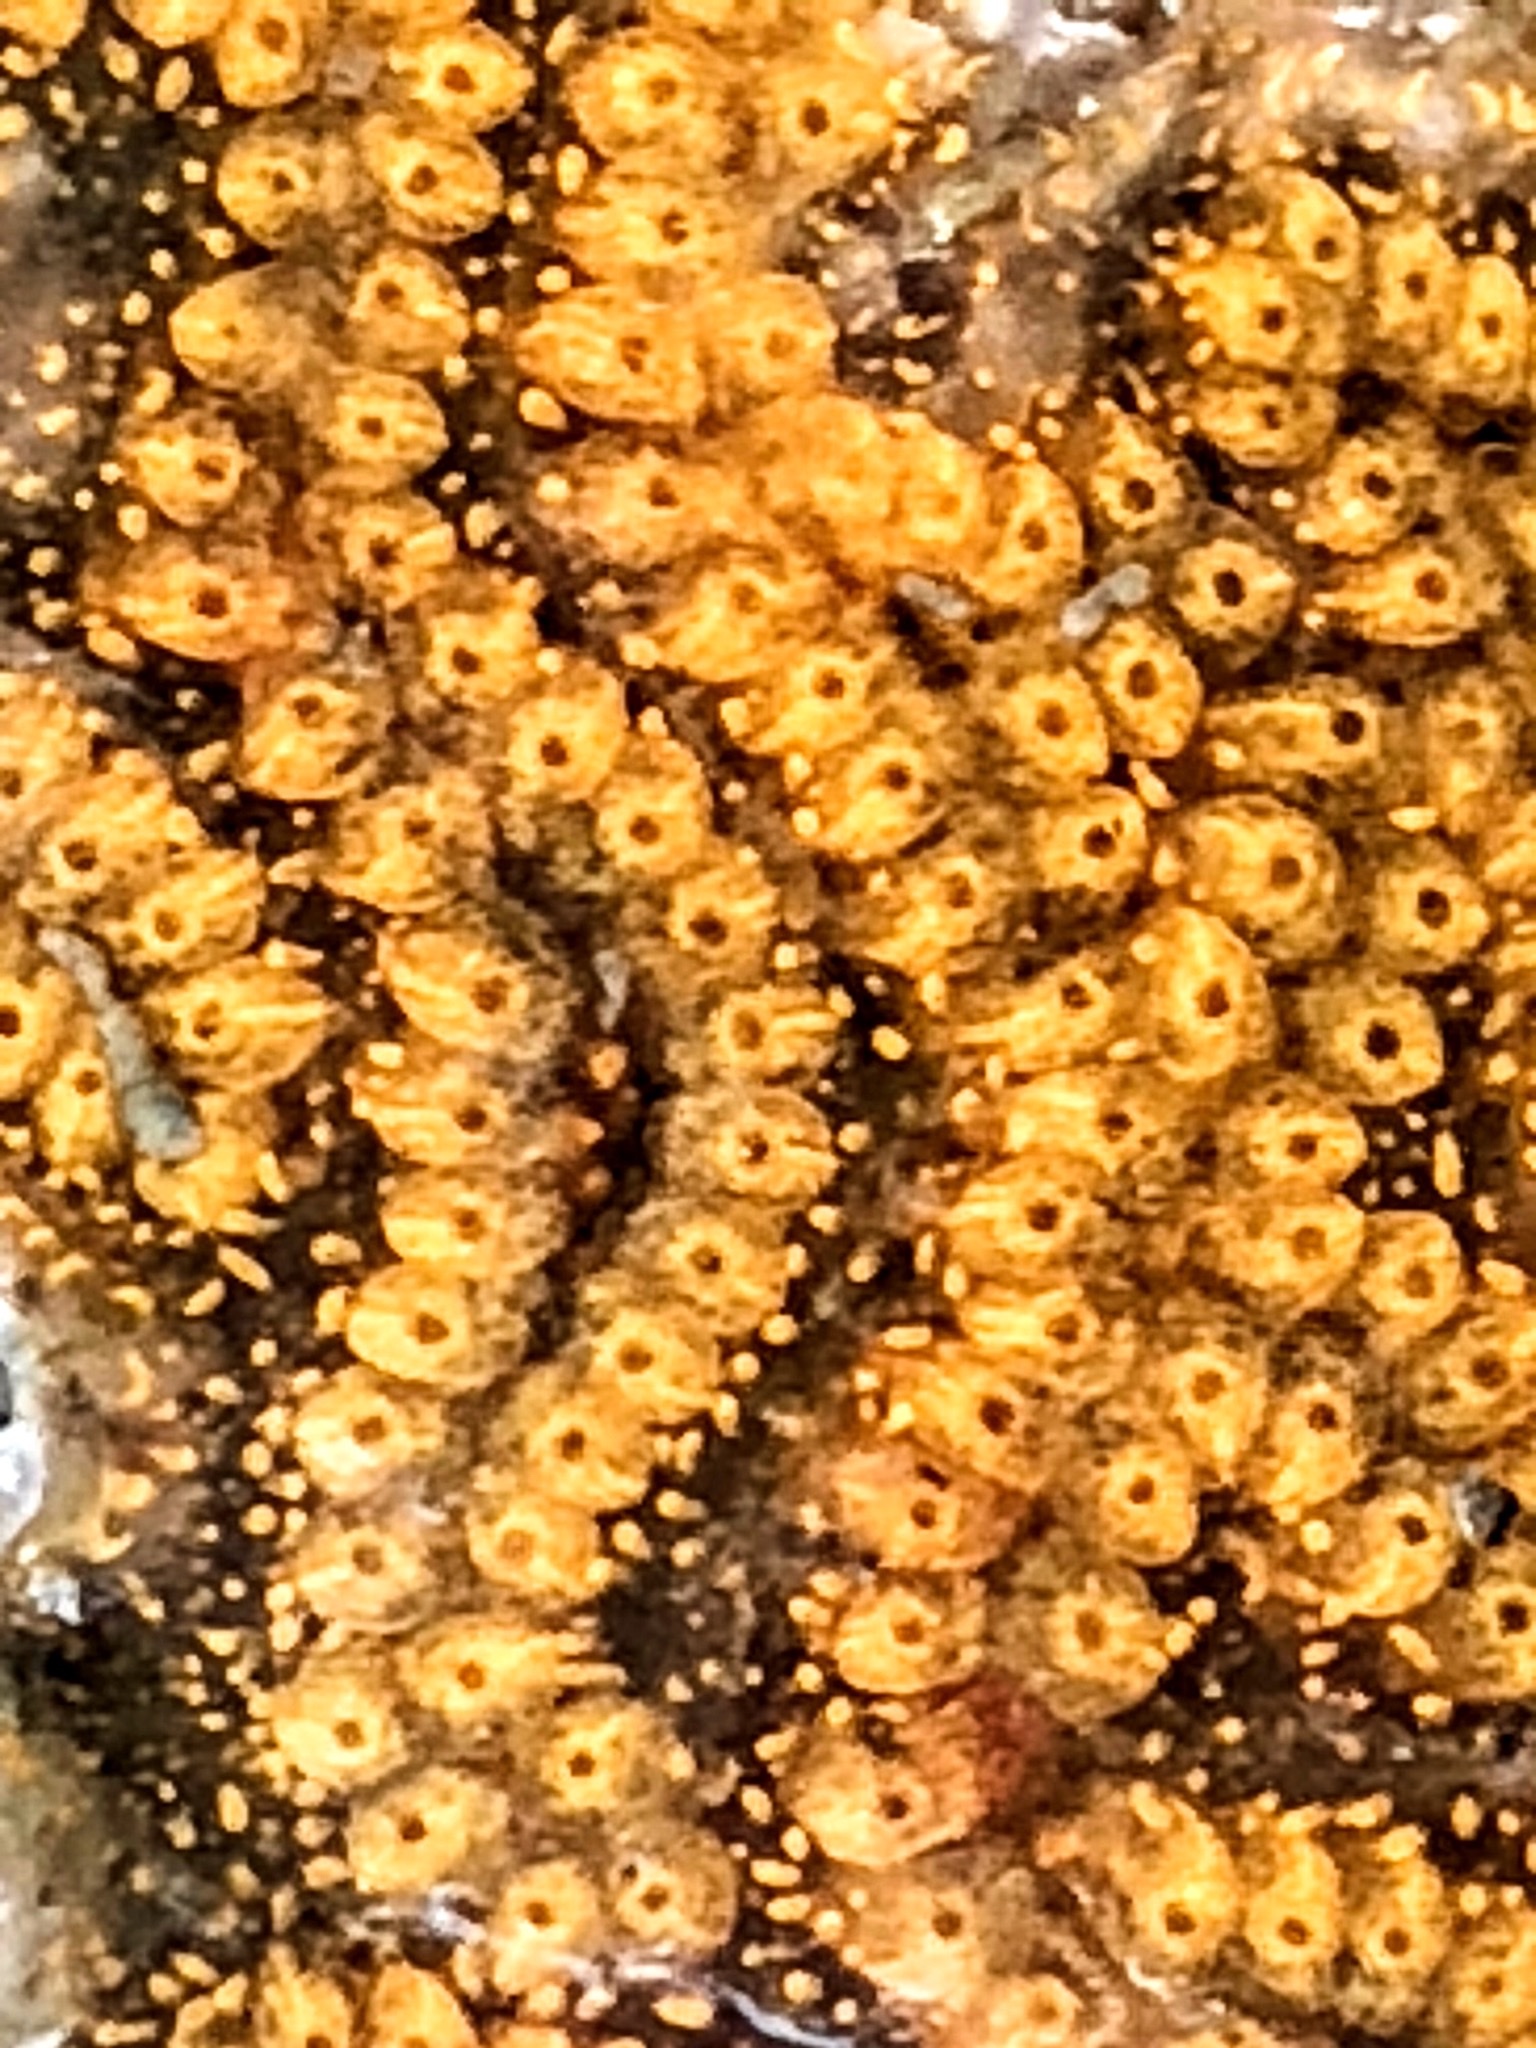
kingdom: Animalia
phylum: Chordata
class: Ascidiacea
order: Stolidobranchia
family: Styelidae
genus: Botrylloides
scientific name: Botrylloides violaceus
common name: Colonial sea squirt
